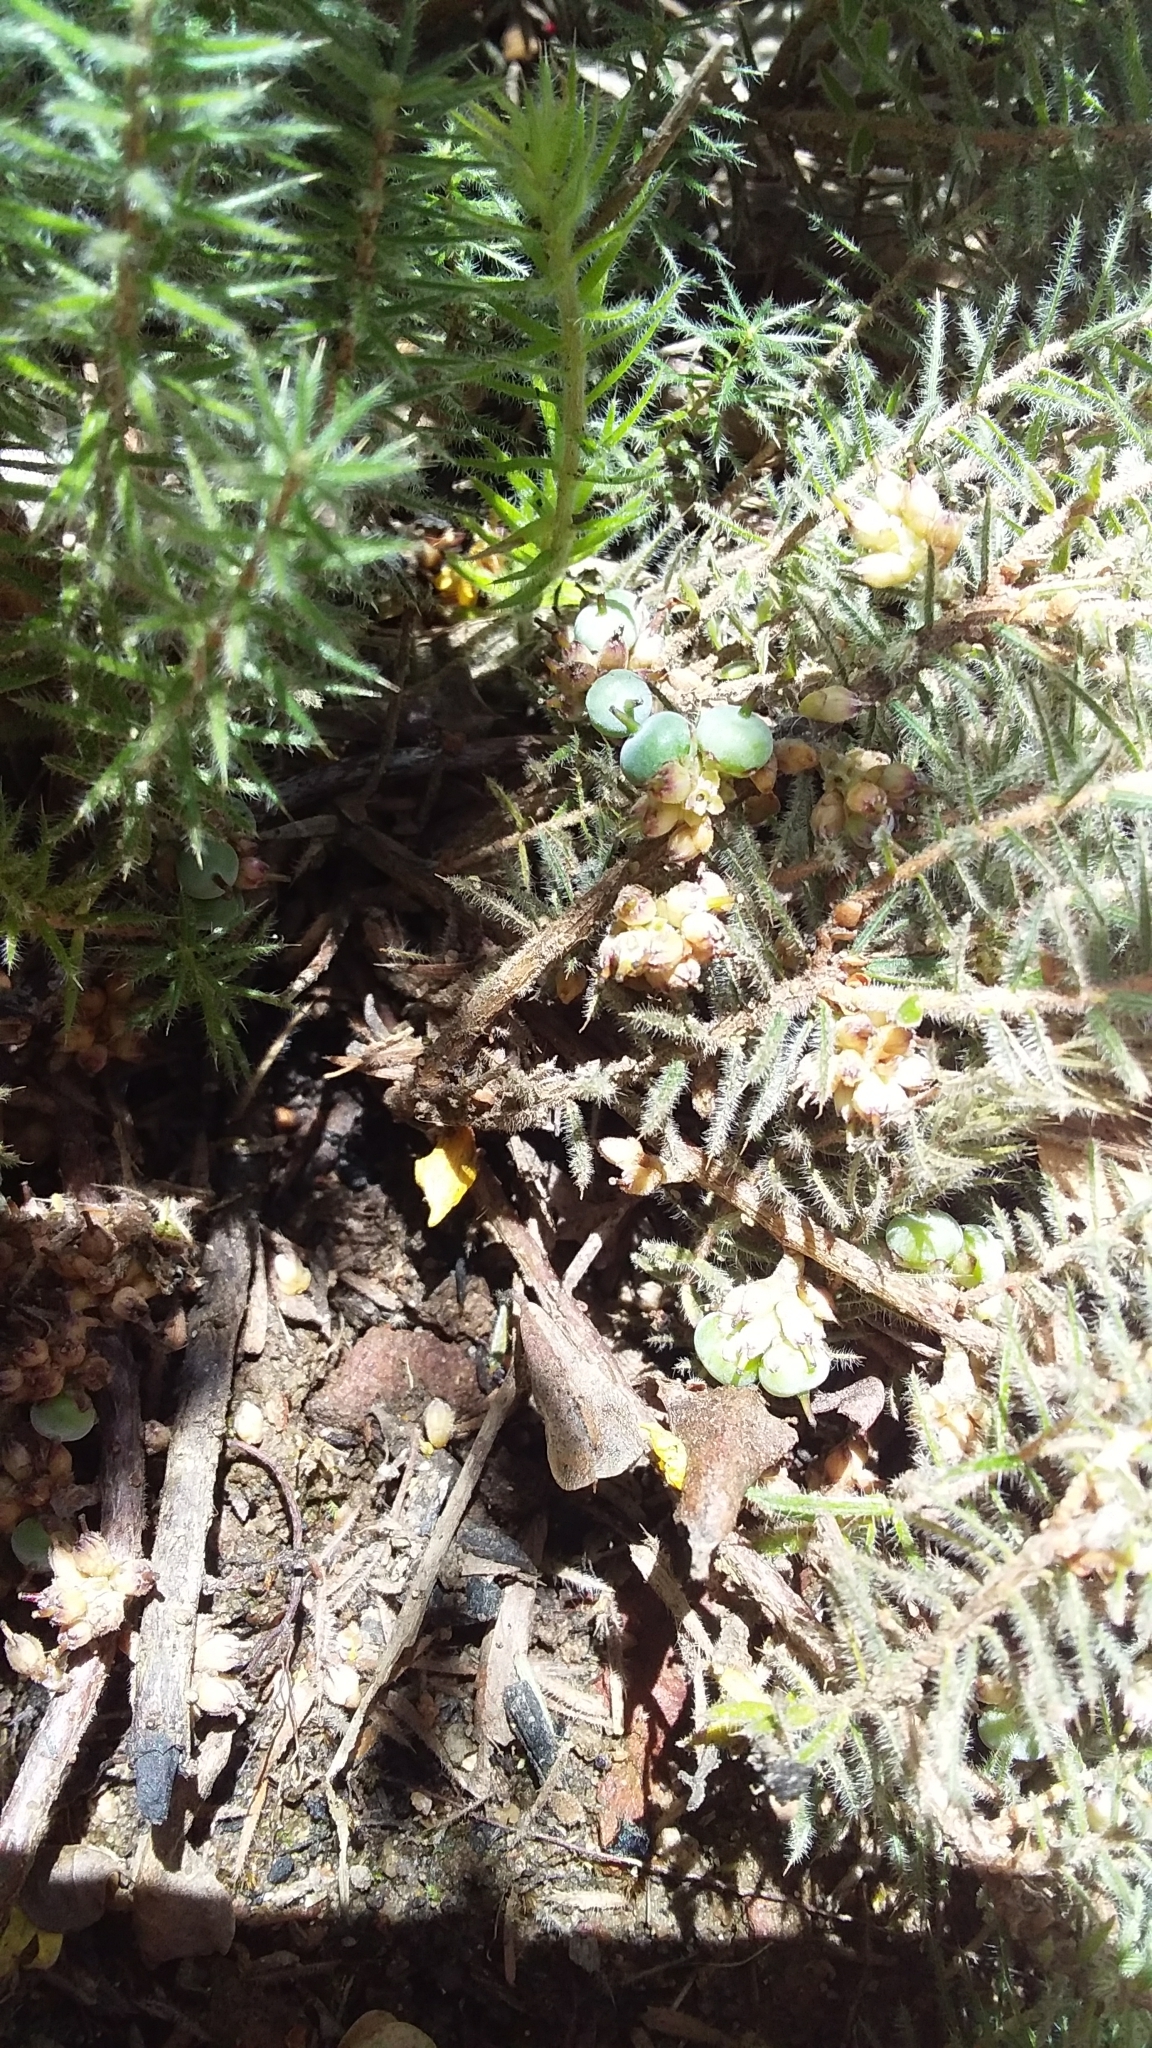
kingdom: Plantae
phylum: Tracheophyta
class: Magnoliopsida
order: Ericales
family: Ericaceae
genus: Acrotriche
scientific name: Acrotriche serrulata
